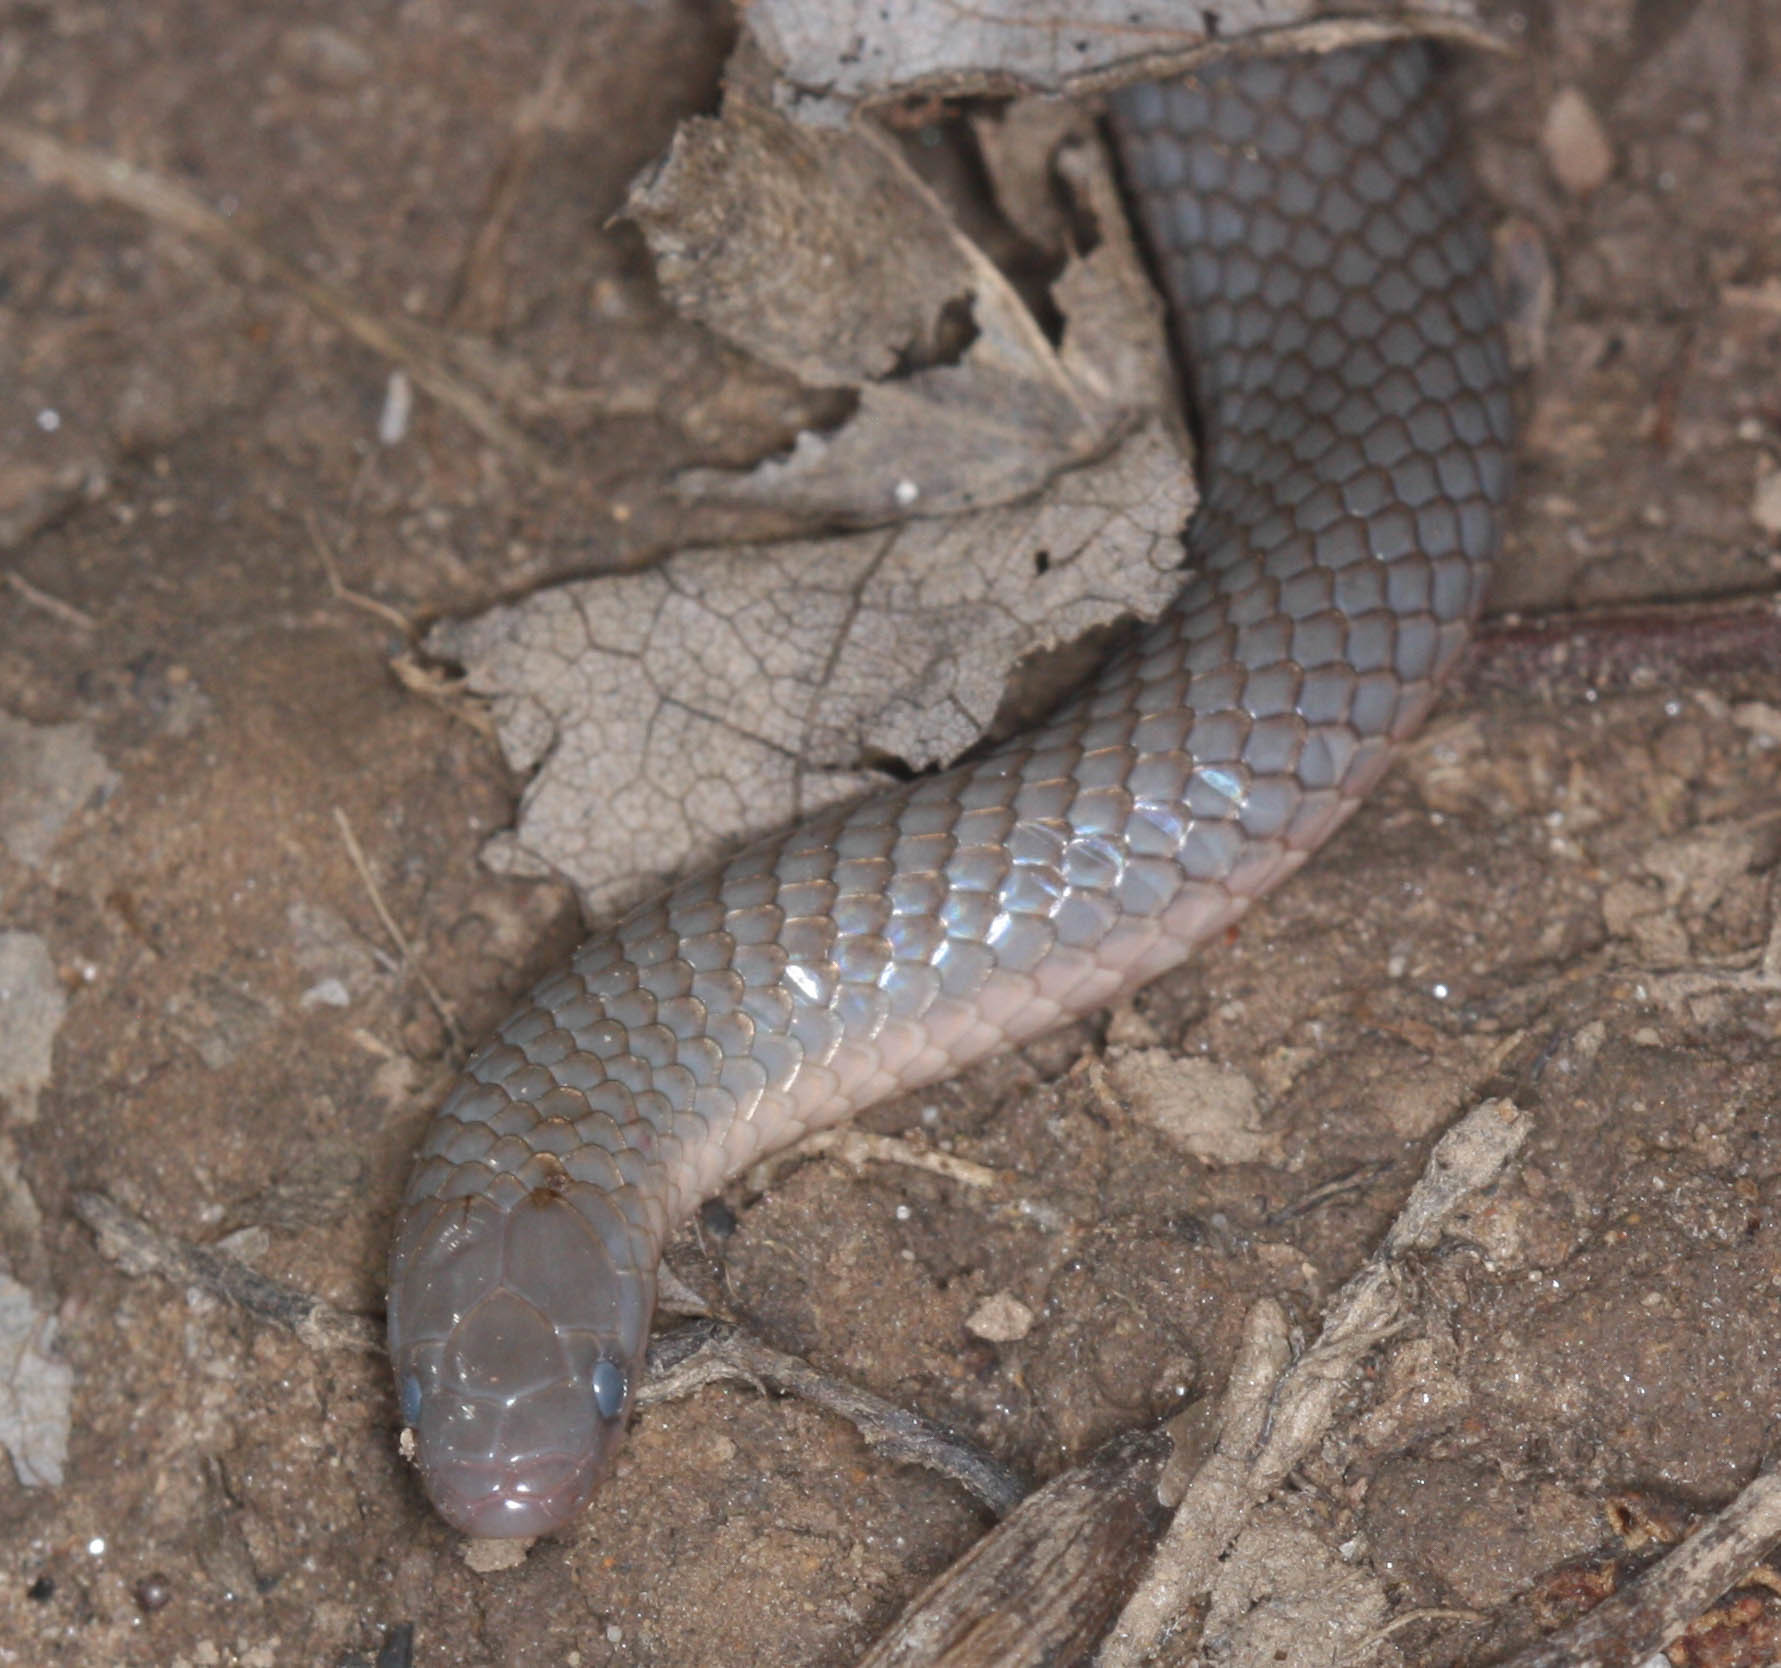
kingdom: Animalia
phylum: Chordata
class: Squamata
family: Colubridae
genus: Carphophis
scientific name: Carphophis amoenus
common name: Eastern worm snake
